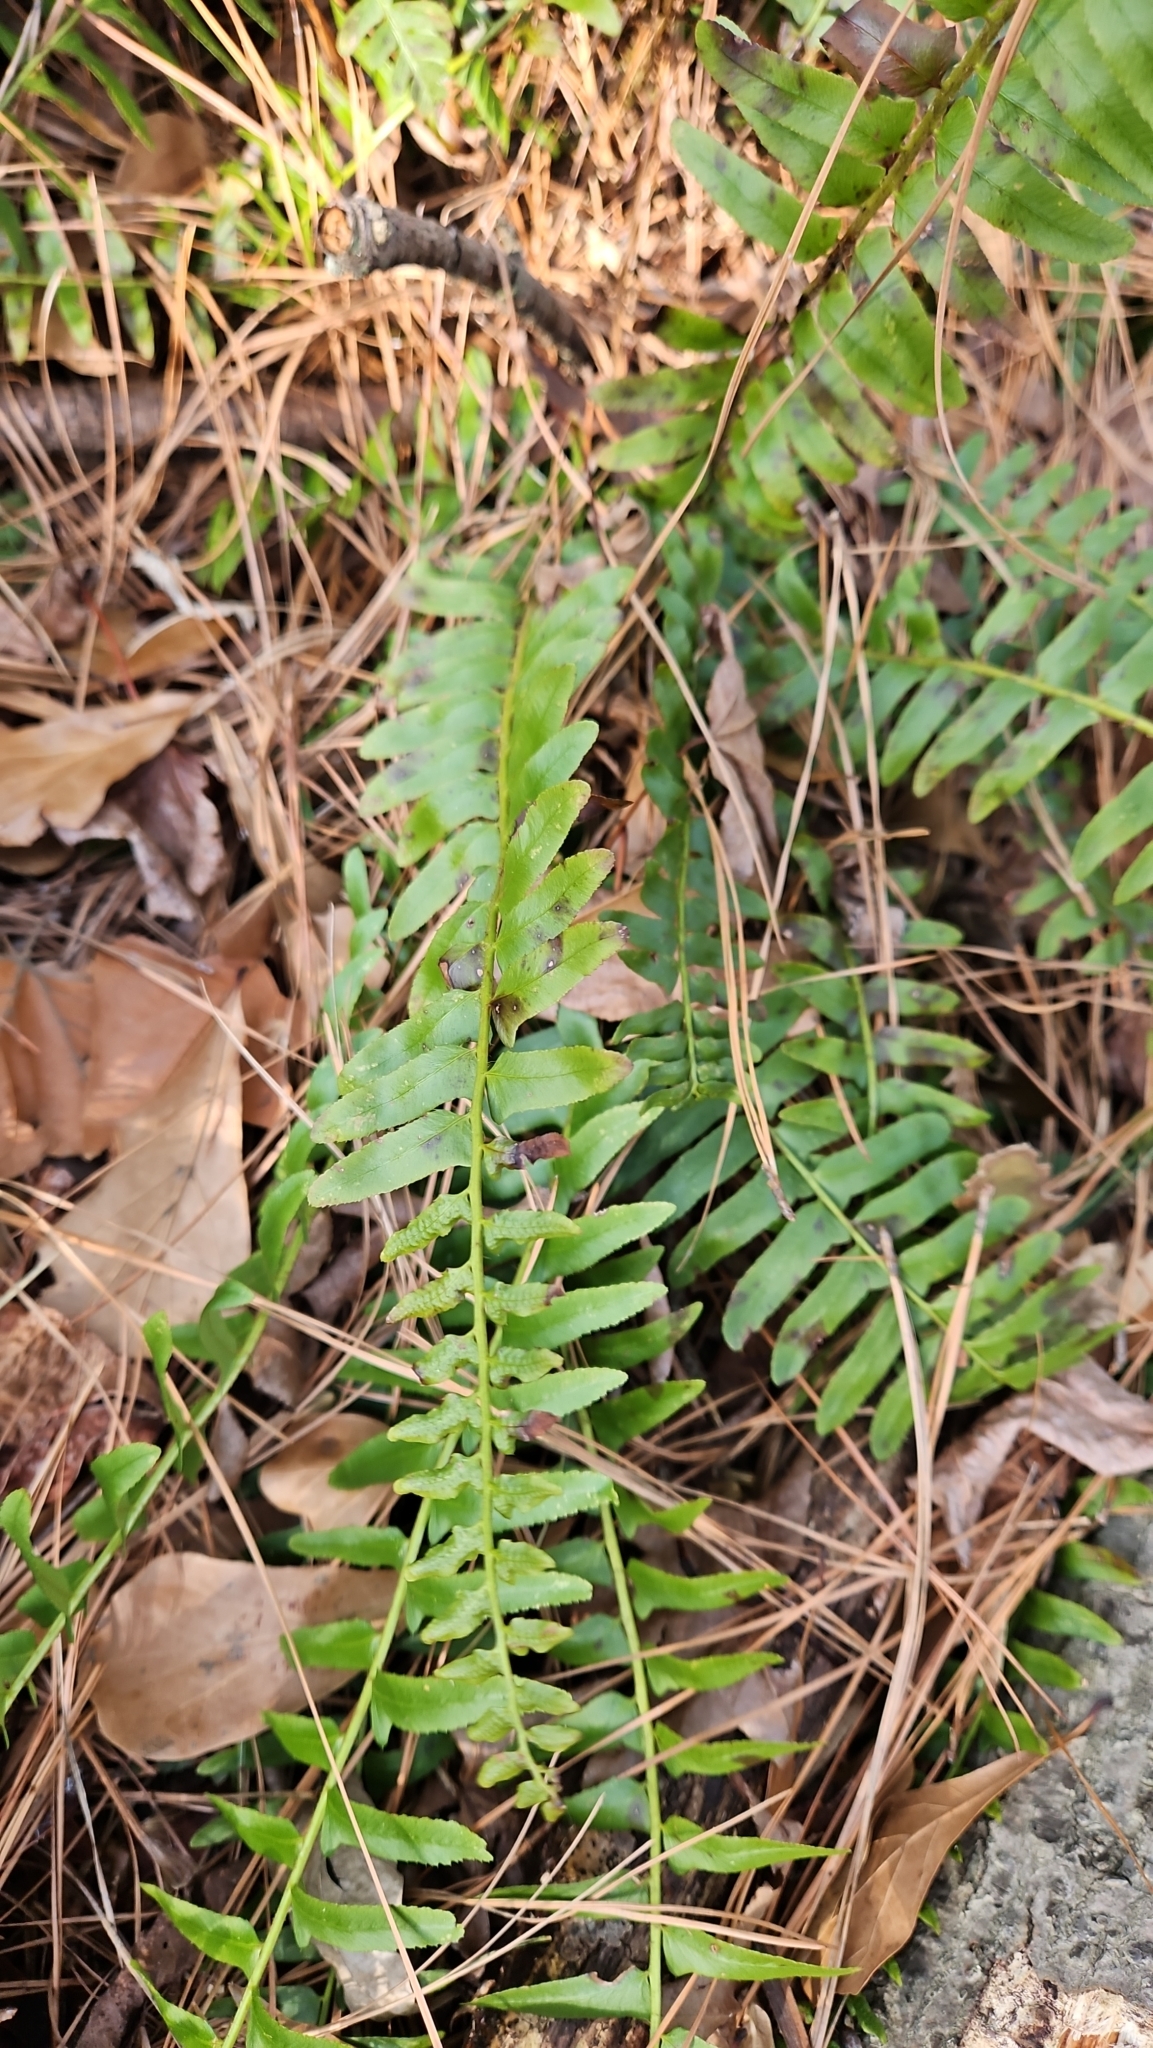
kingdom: Plantae
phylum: Tracheophyta
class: Polypodiopsida
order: Polypodiales
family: Dryopteridaceae
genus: Polystichum
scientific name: Polystichum acrostichoides
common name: Christmas fern
